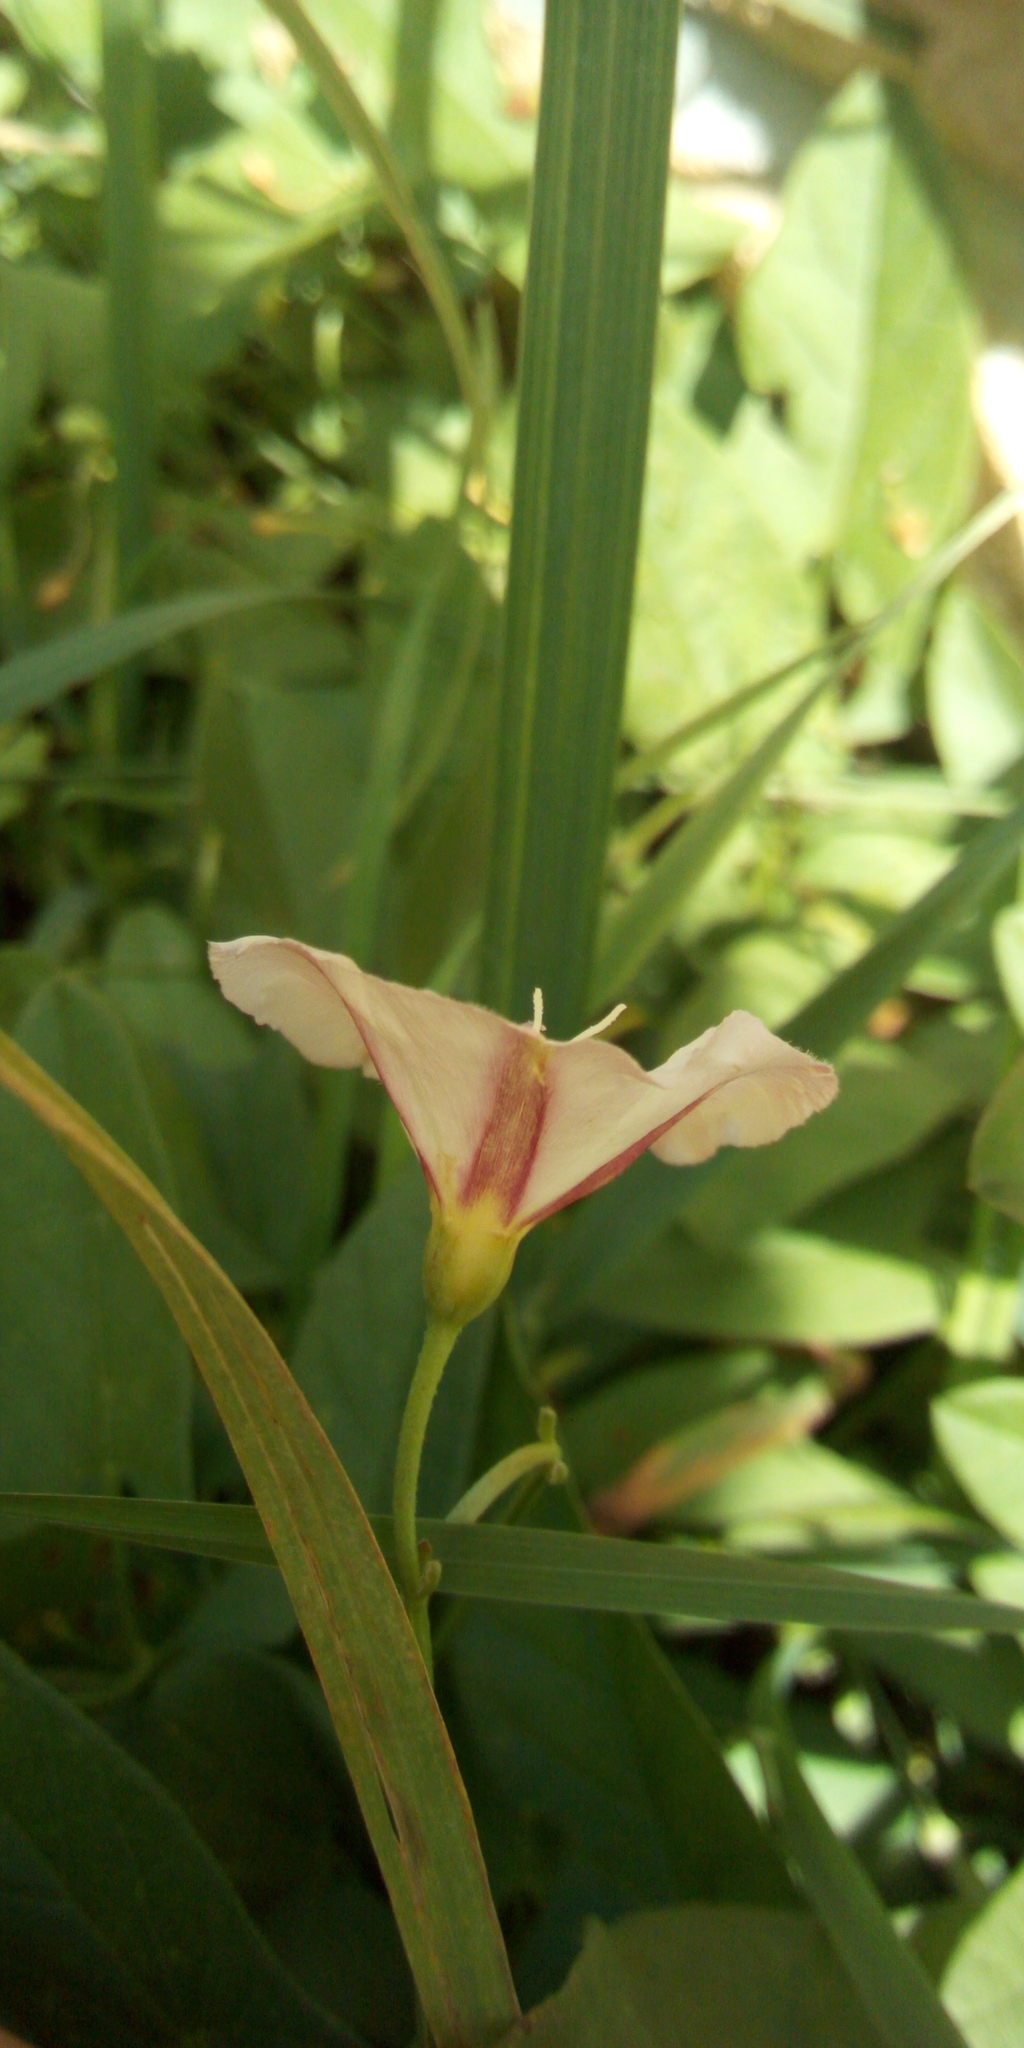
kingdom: Plantae
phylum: Tracheophyta
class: Magnoliopsida
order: Solanales
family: Convolvulaceae
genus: Convolvulus
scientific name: Convolvulus arvensis
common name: Field bindweed
